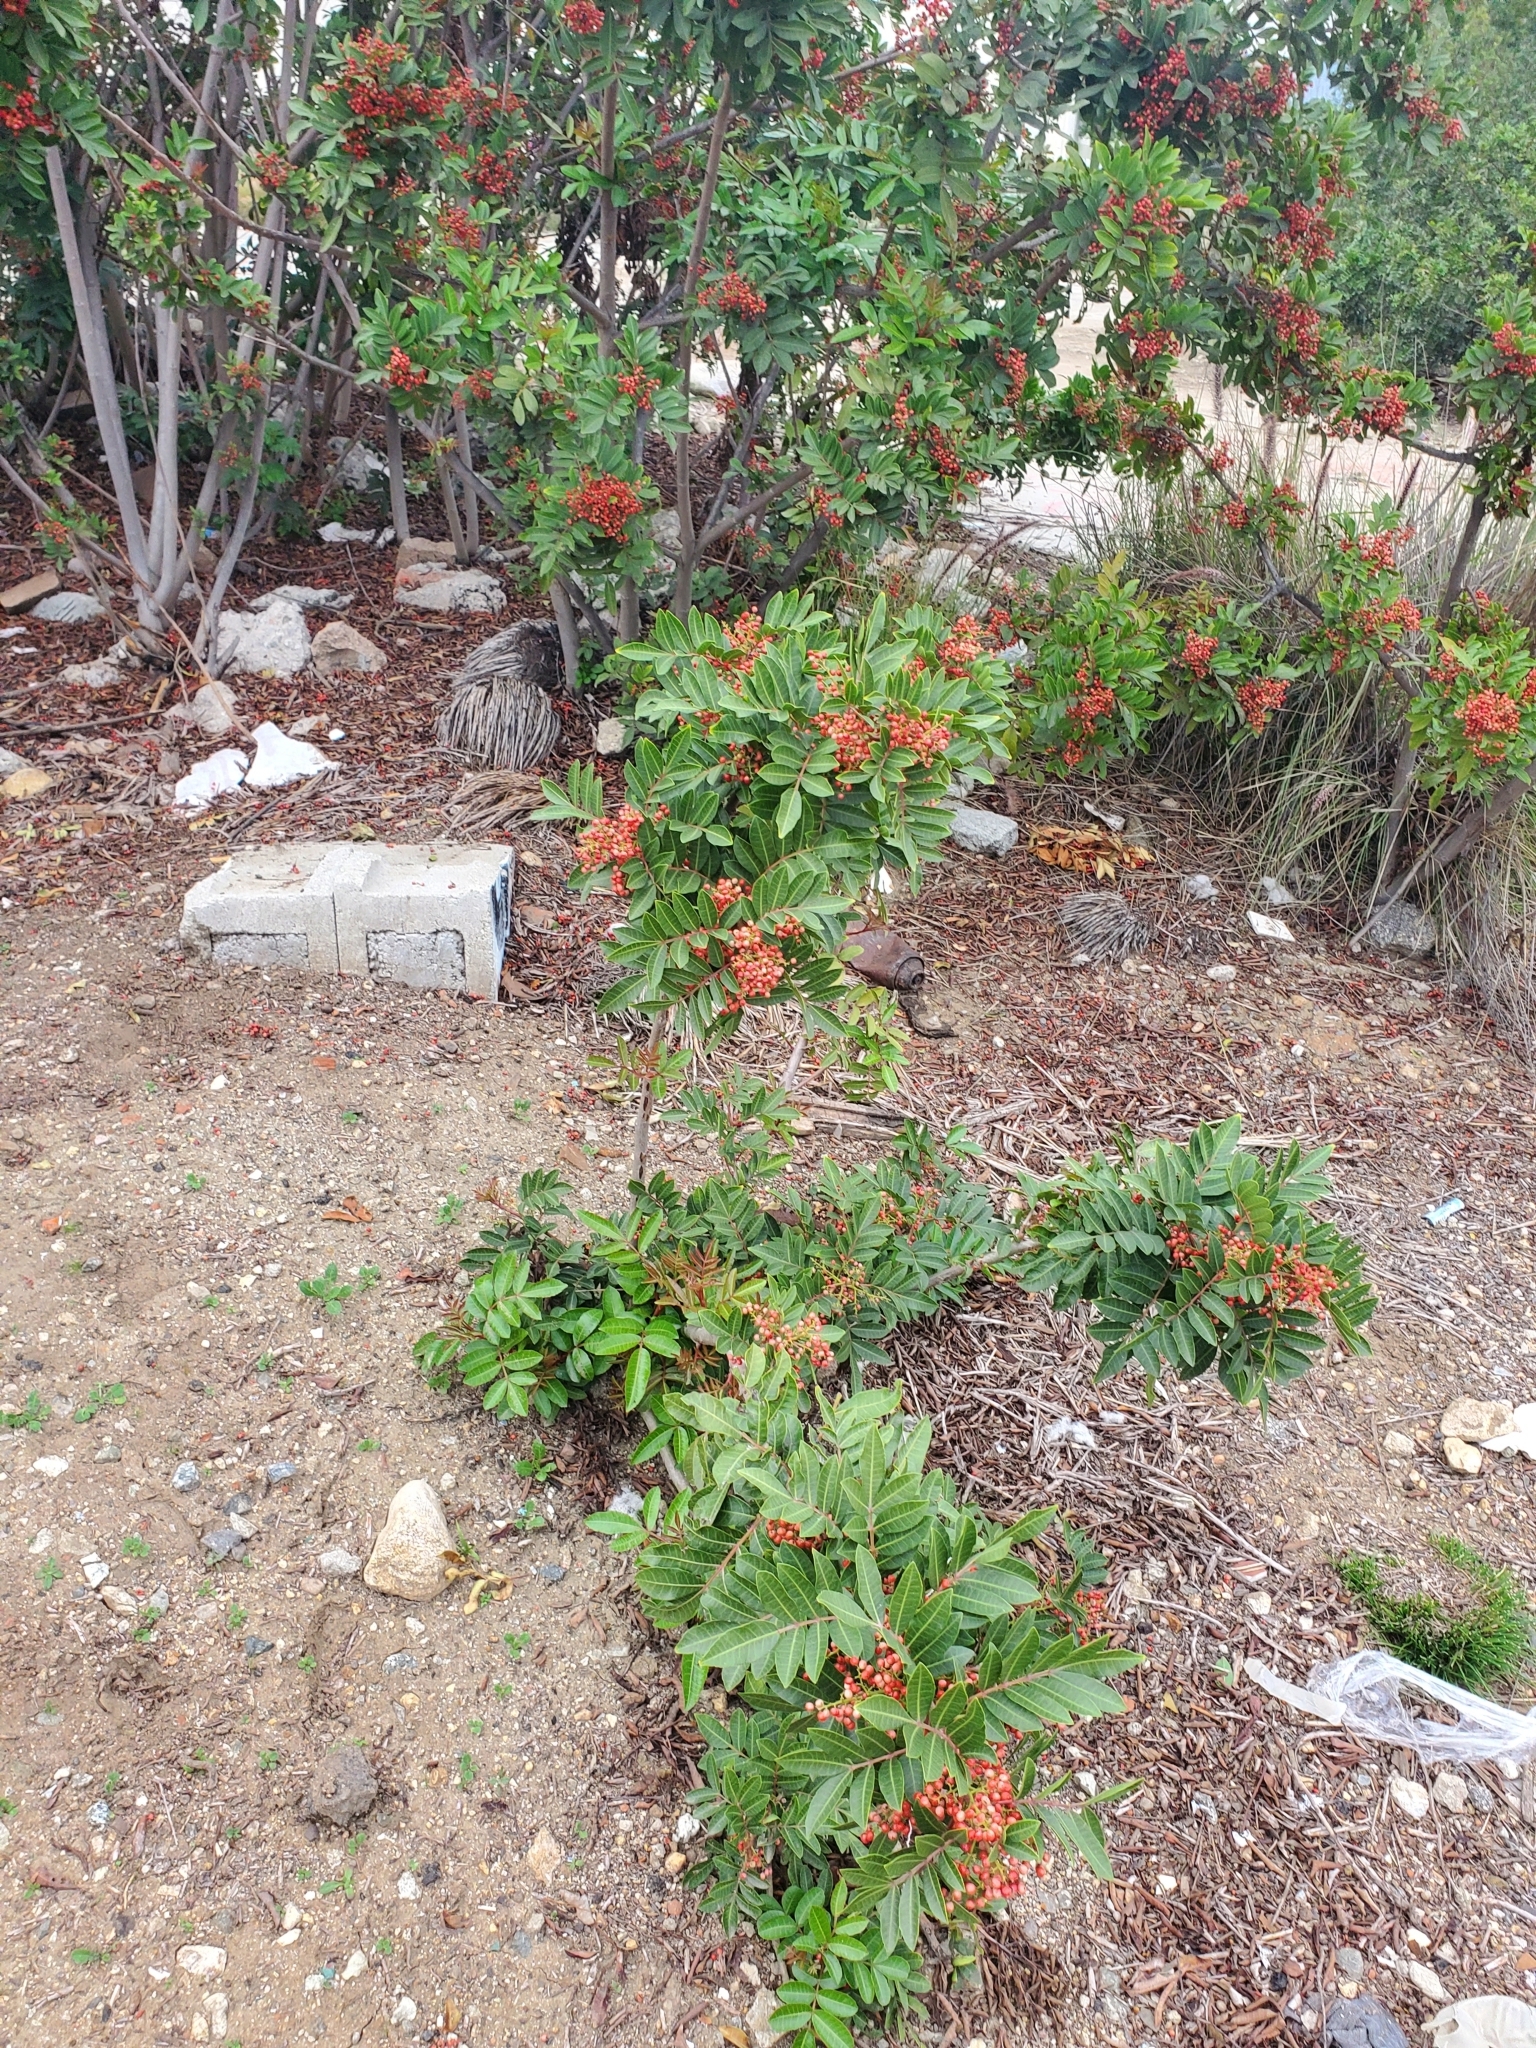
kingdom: Plantae
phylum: Tracheophyta
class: Magnoliopsida
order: Sapindales
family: Anacardiaceae
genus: Schinus
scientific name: Schinus terebinthifolia
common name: Brazilian peppertree
